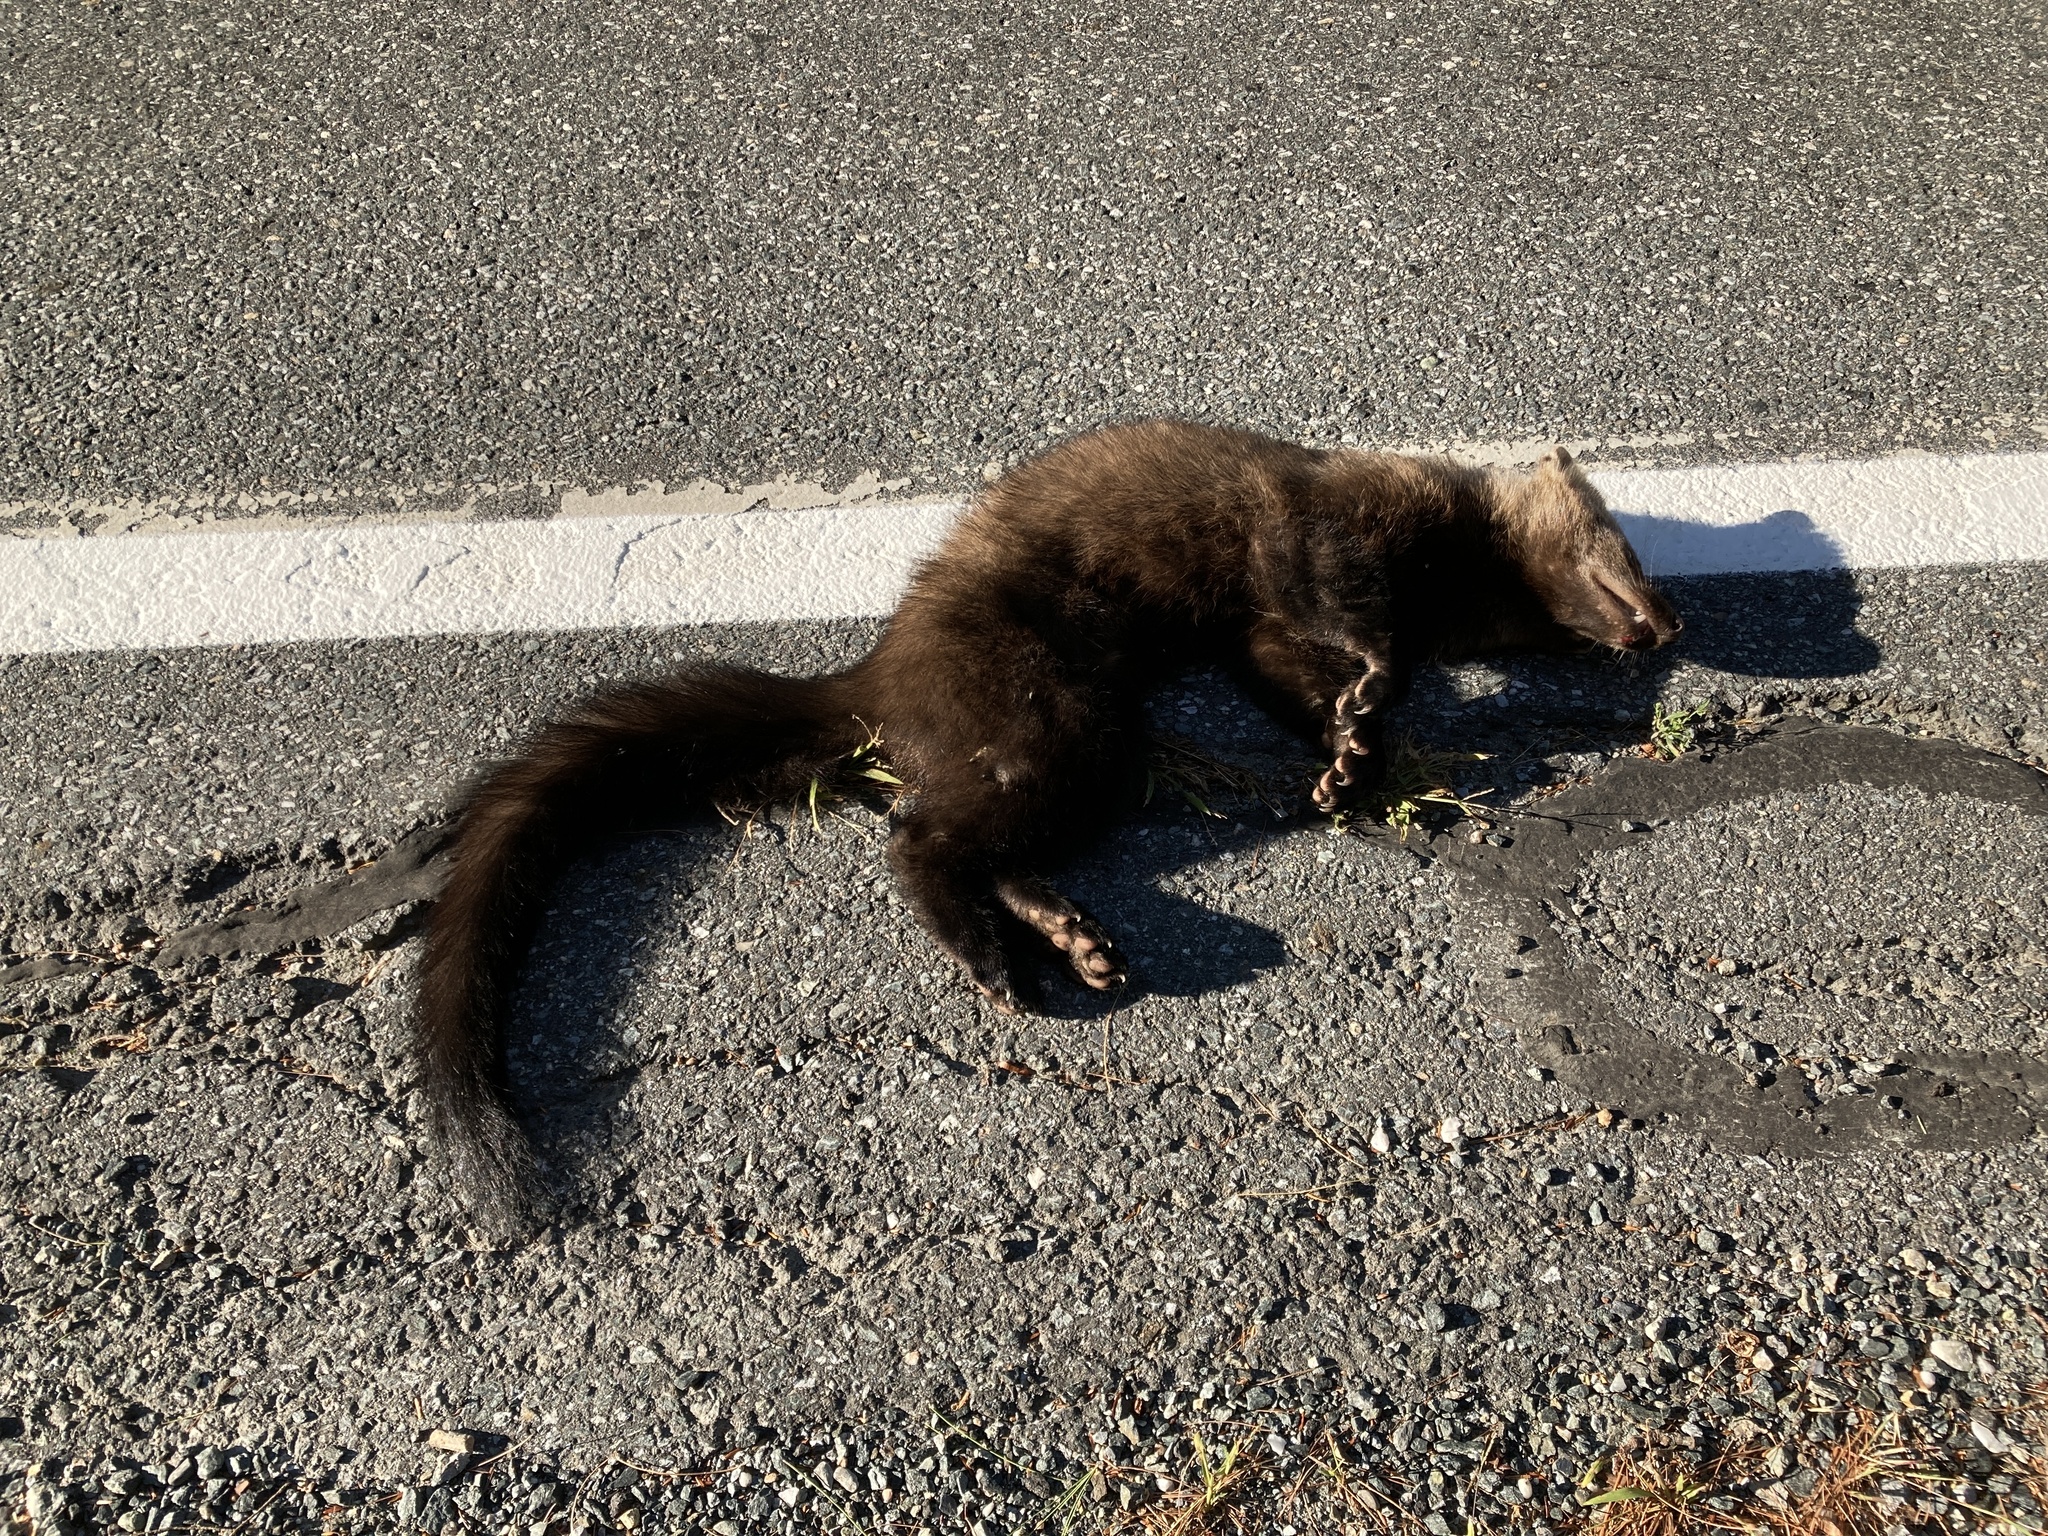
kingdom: Animalia
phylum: Chordata
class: Mammalia
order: Carnivora
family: Mustelidae
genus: Pekania
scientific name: Pekania pennanti
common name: Fisher
